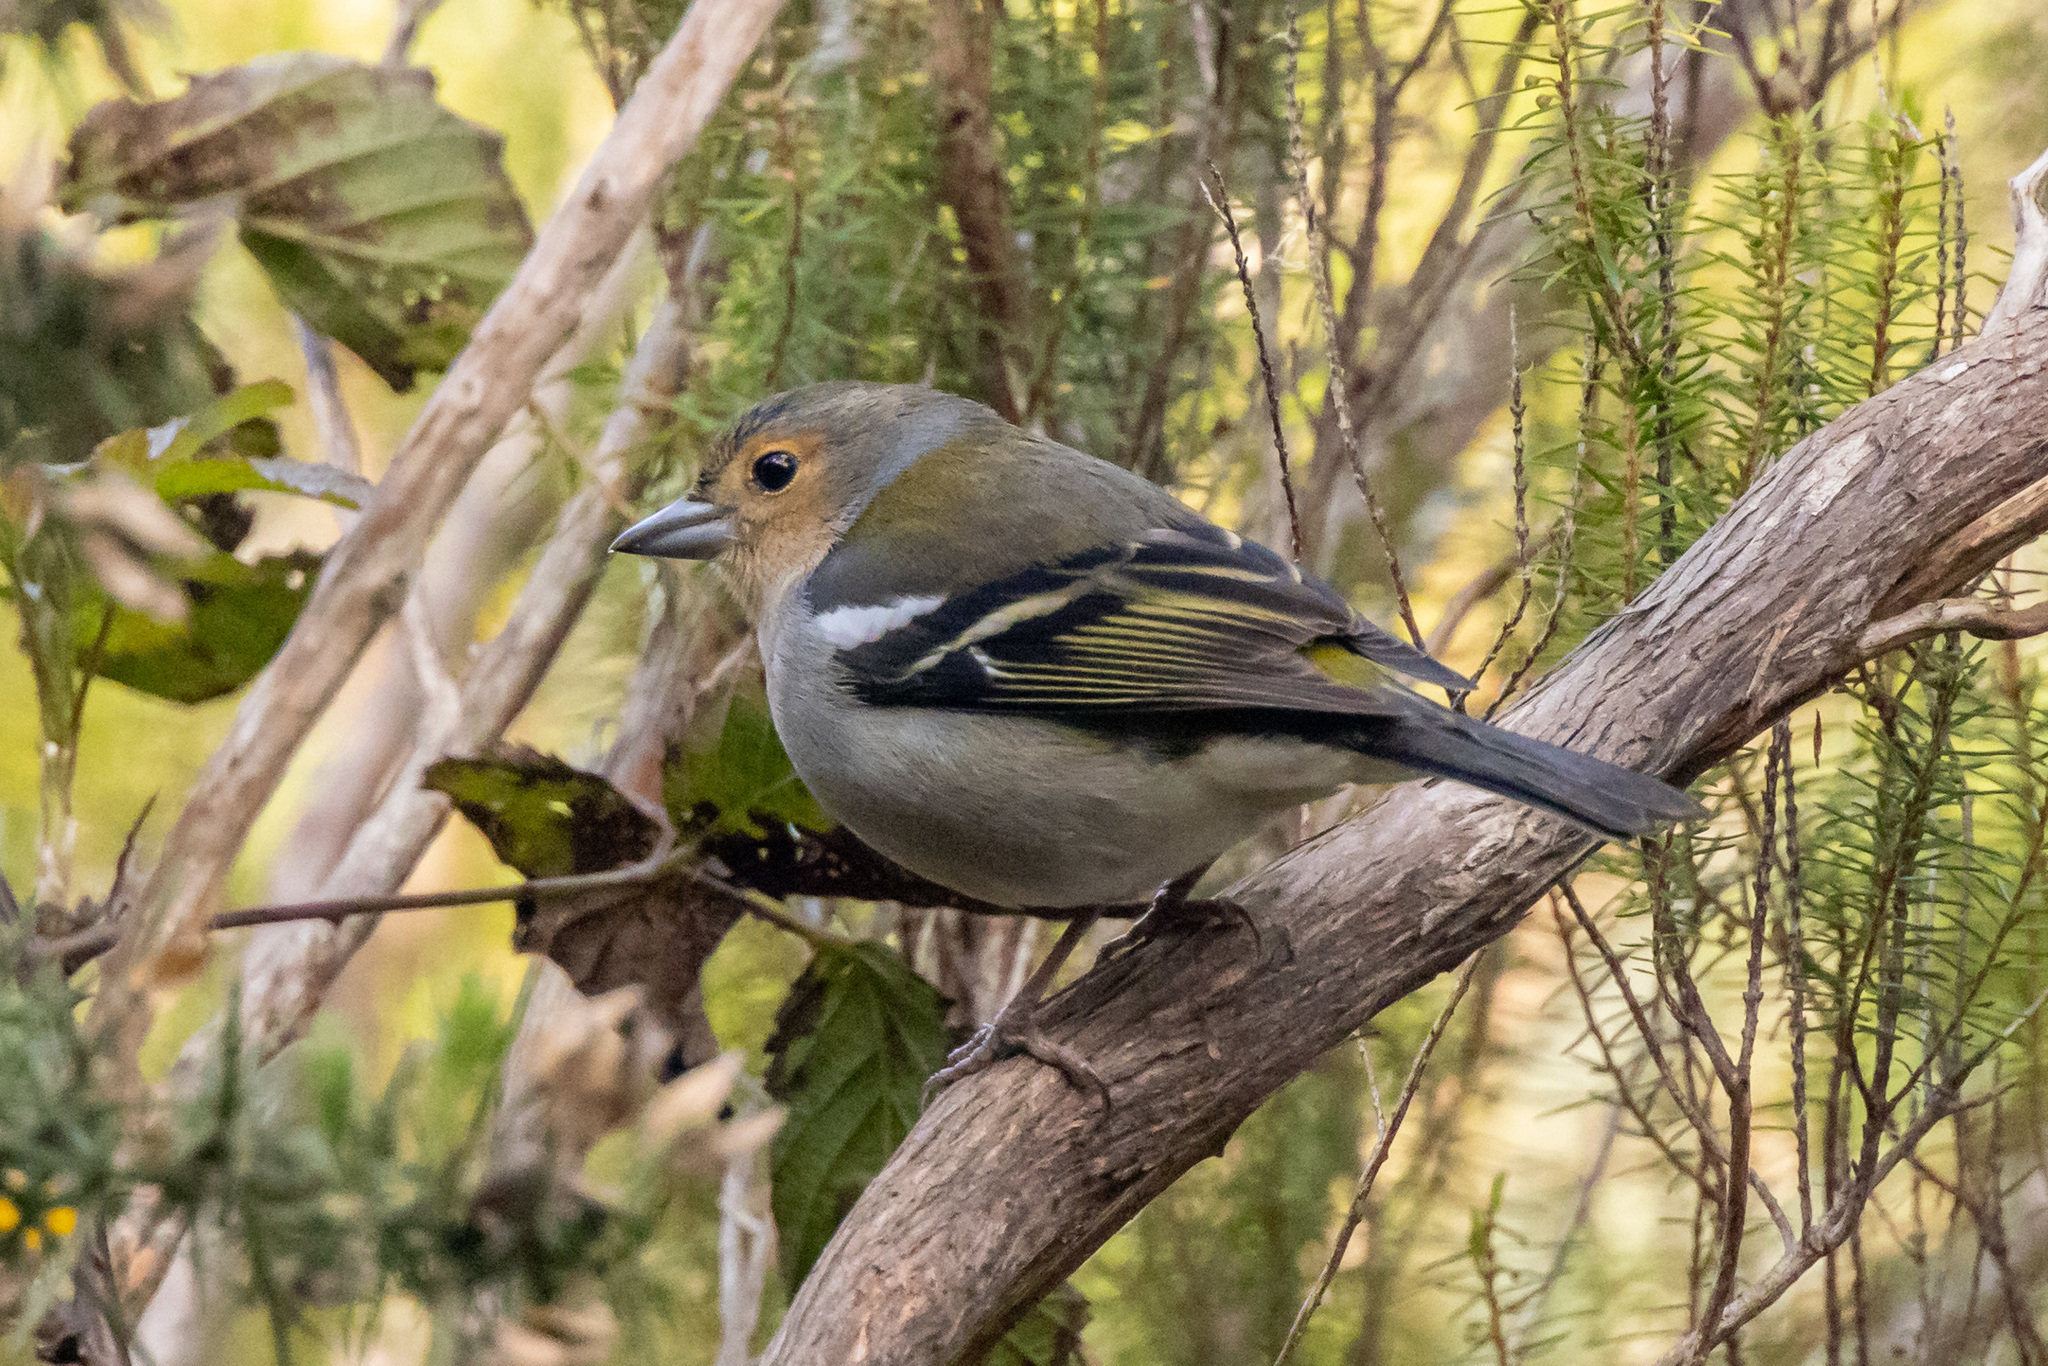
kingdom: Animalia
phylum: Chordata
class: Aves
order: Passeriformes
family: Fringillidae
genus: Fringilla
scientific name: Fringilla maderensis
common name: Madeira chaffinch
